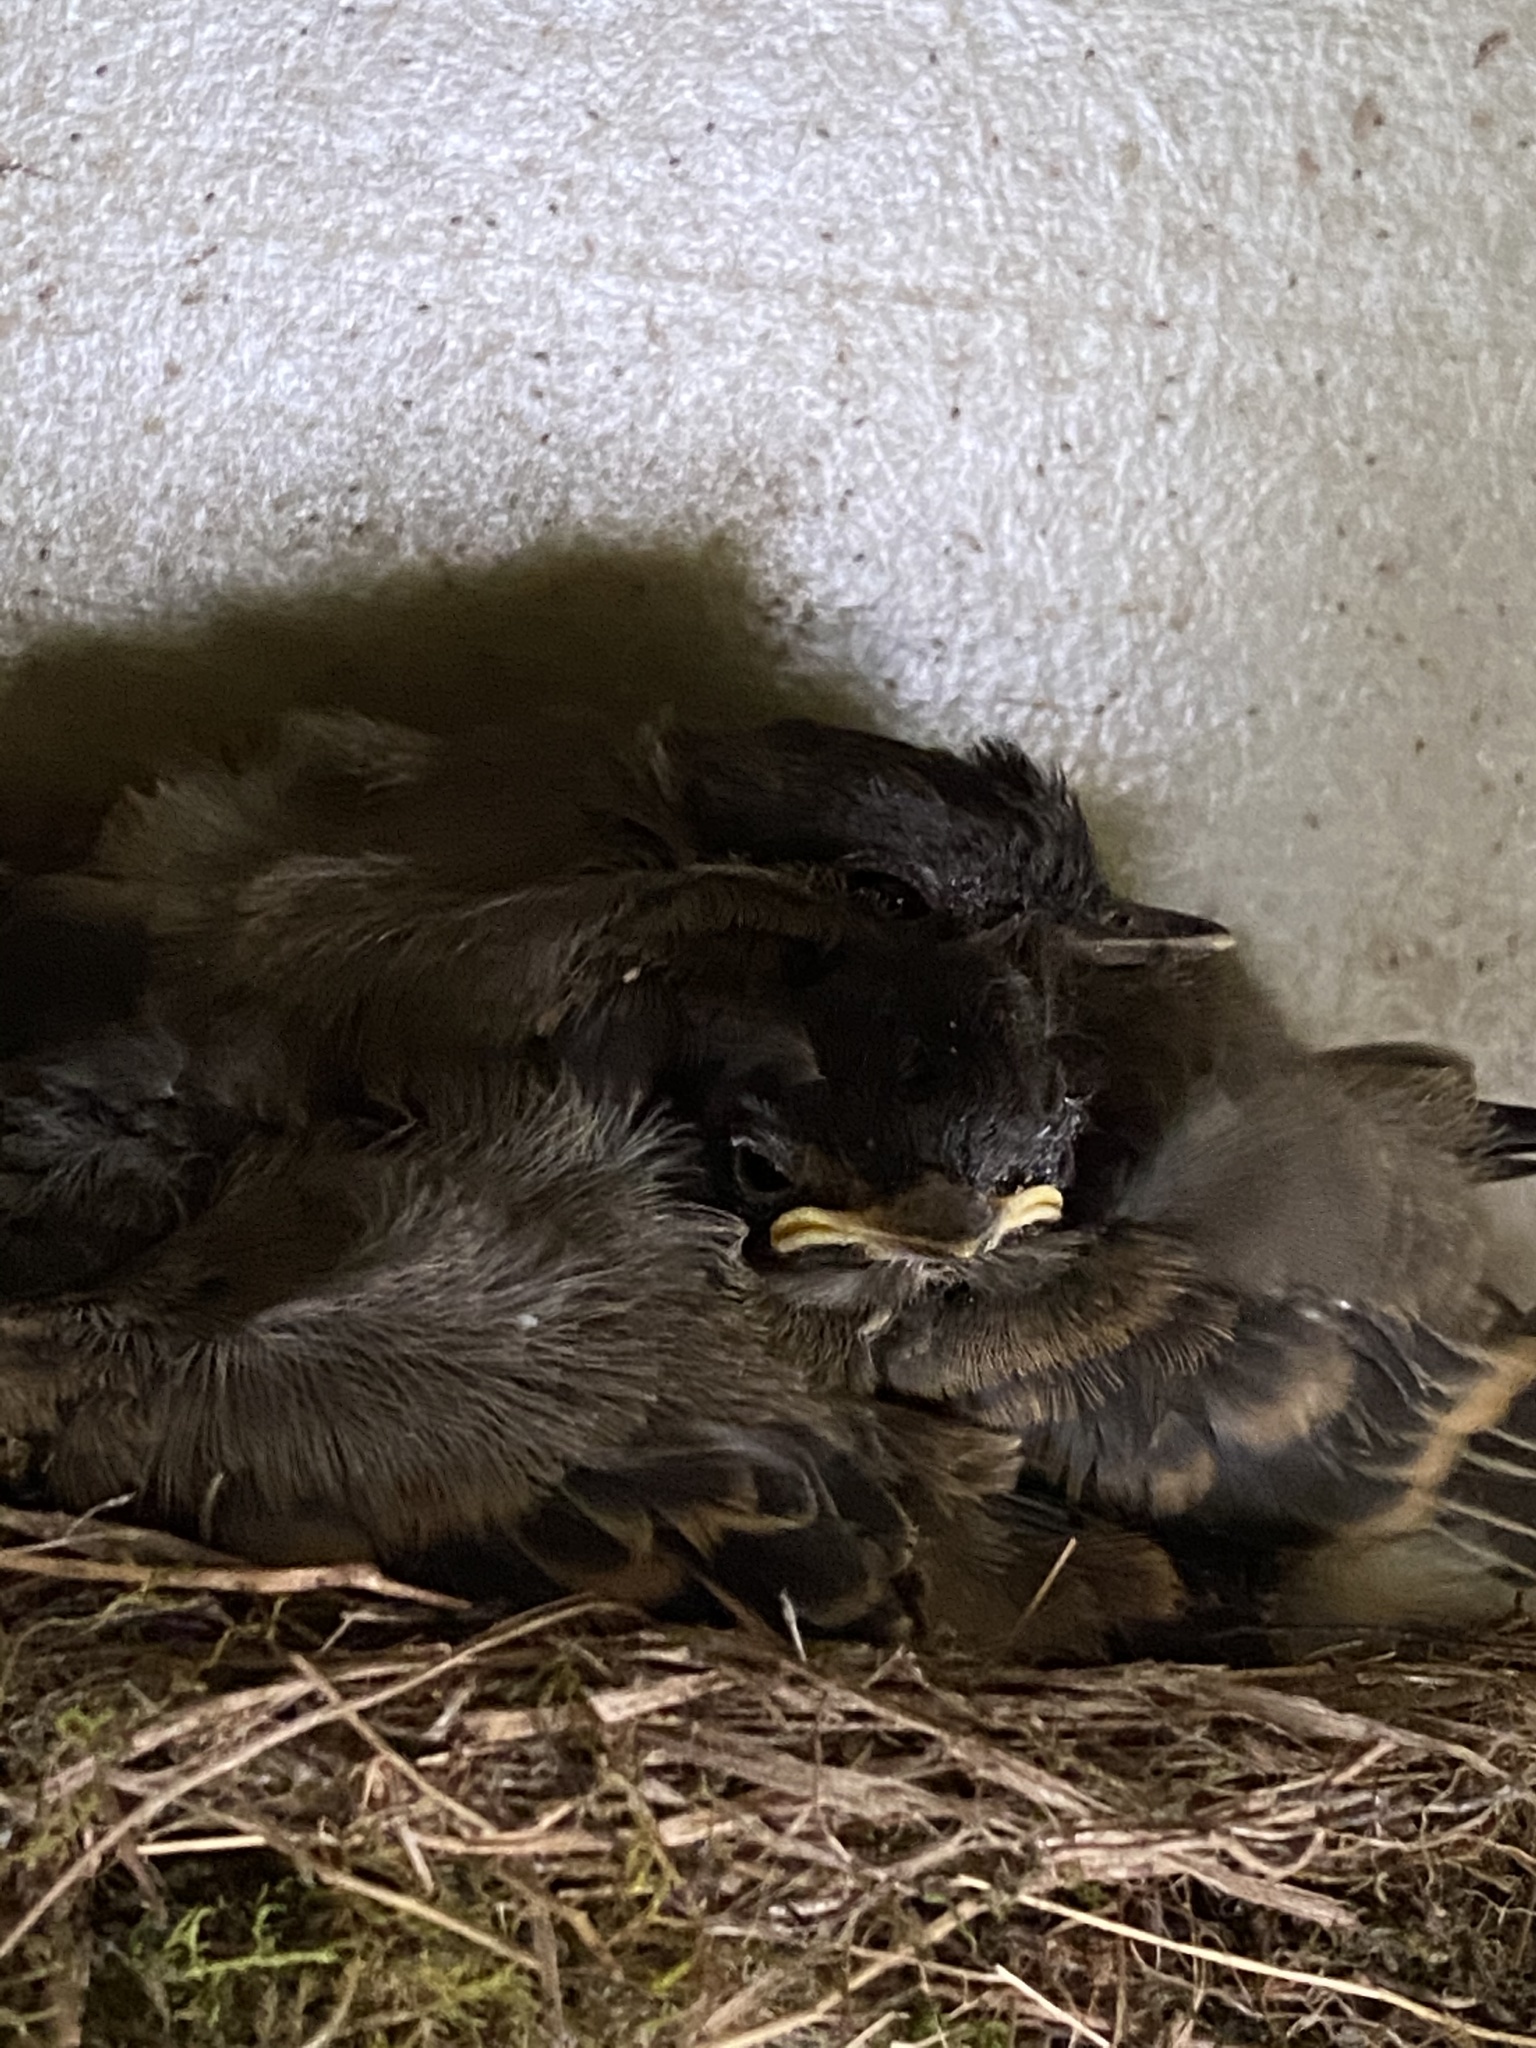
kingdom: Animalia
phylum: Chordata
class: Aves
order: Passeriformes
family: Tyrannidae
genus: Sayornis
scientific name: Sayornis phoebe
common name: Eastern phoebe
